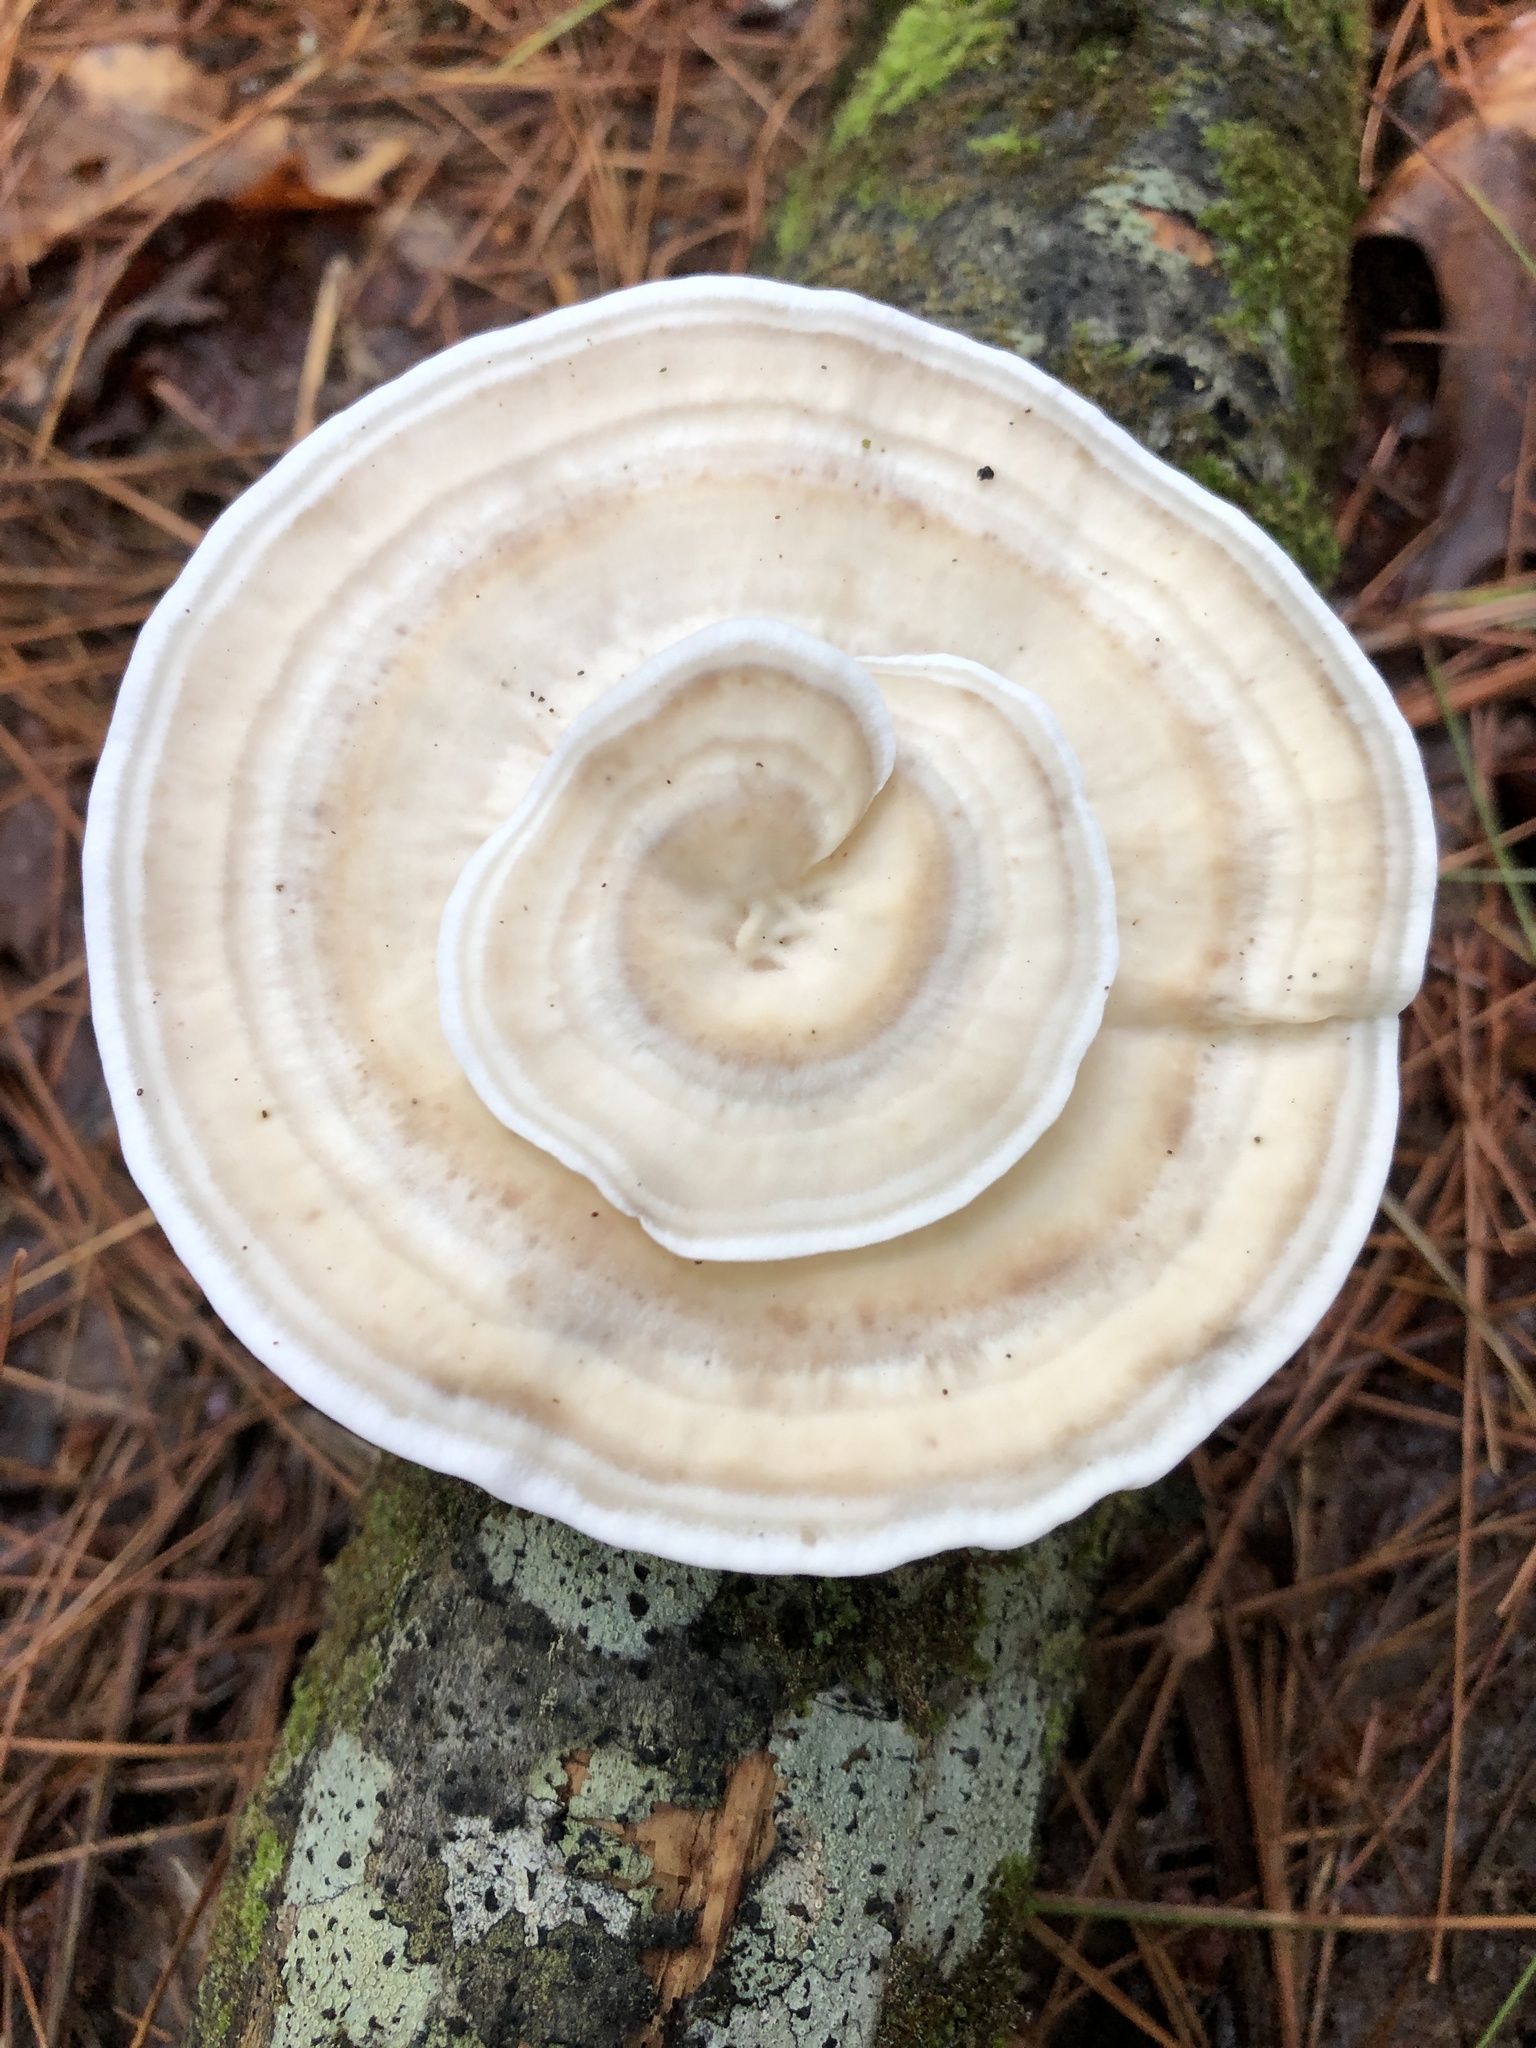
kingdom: Fungi
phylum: Basidiomycota
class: Agaricomycetes
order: Polyporales
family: Steccherinaceae
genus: Mycorrhaphium
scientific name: Mycorrhaphium adustum
